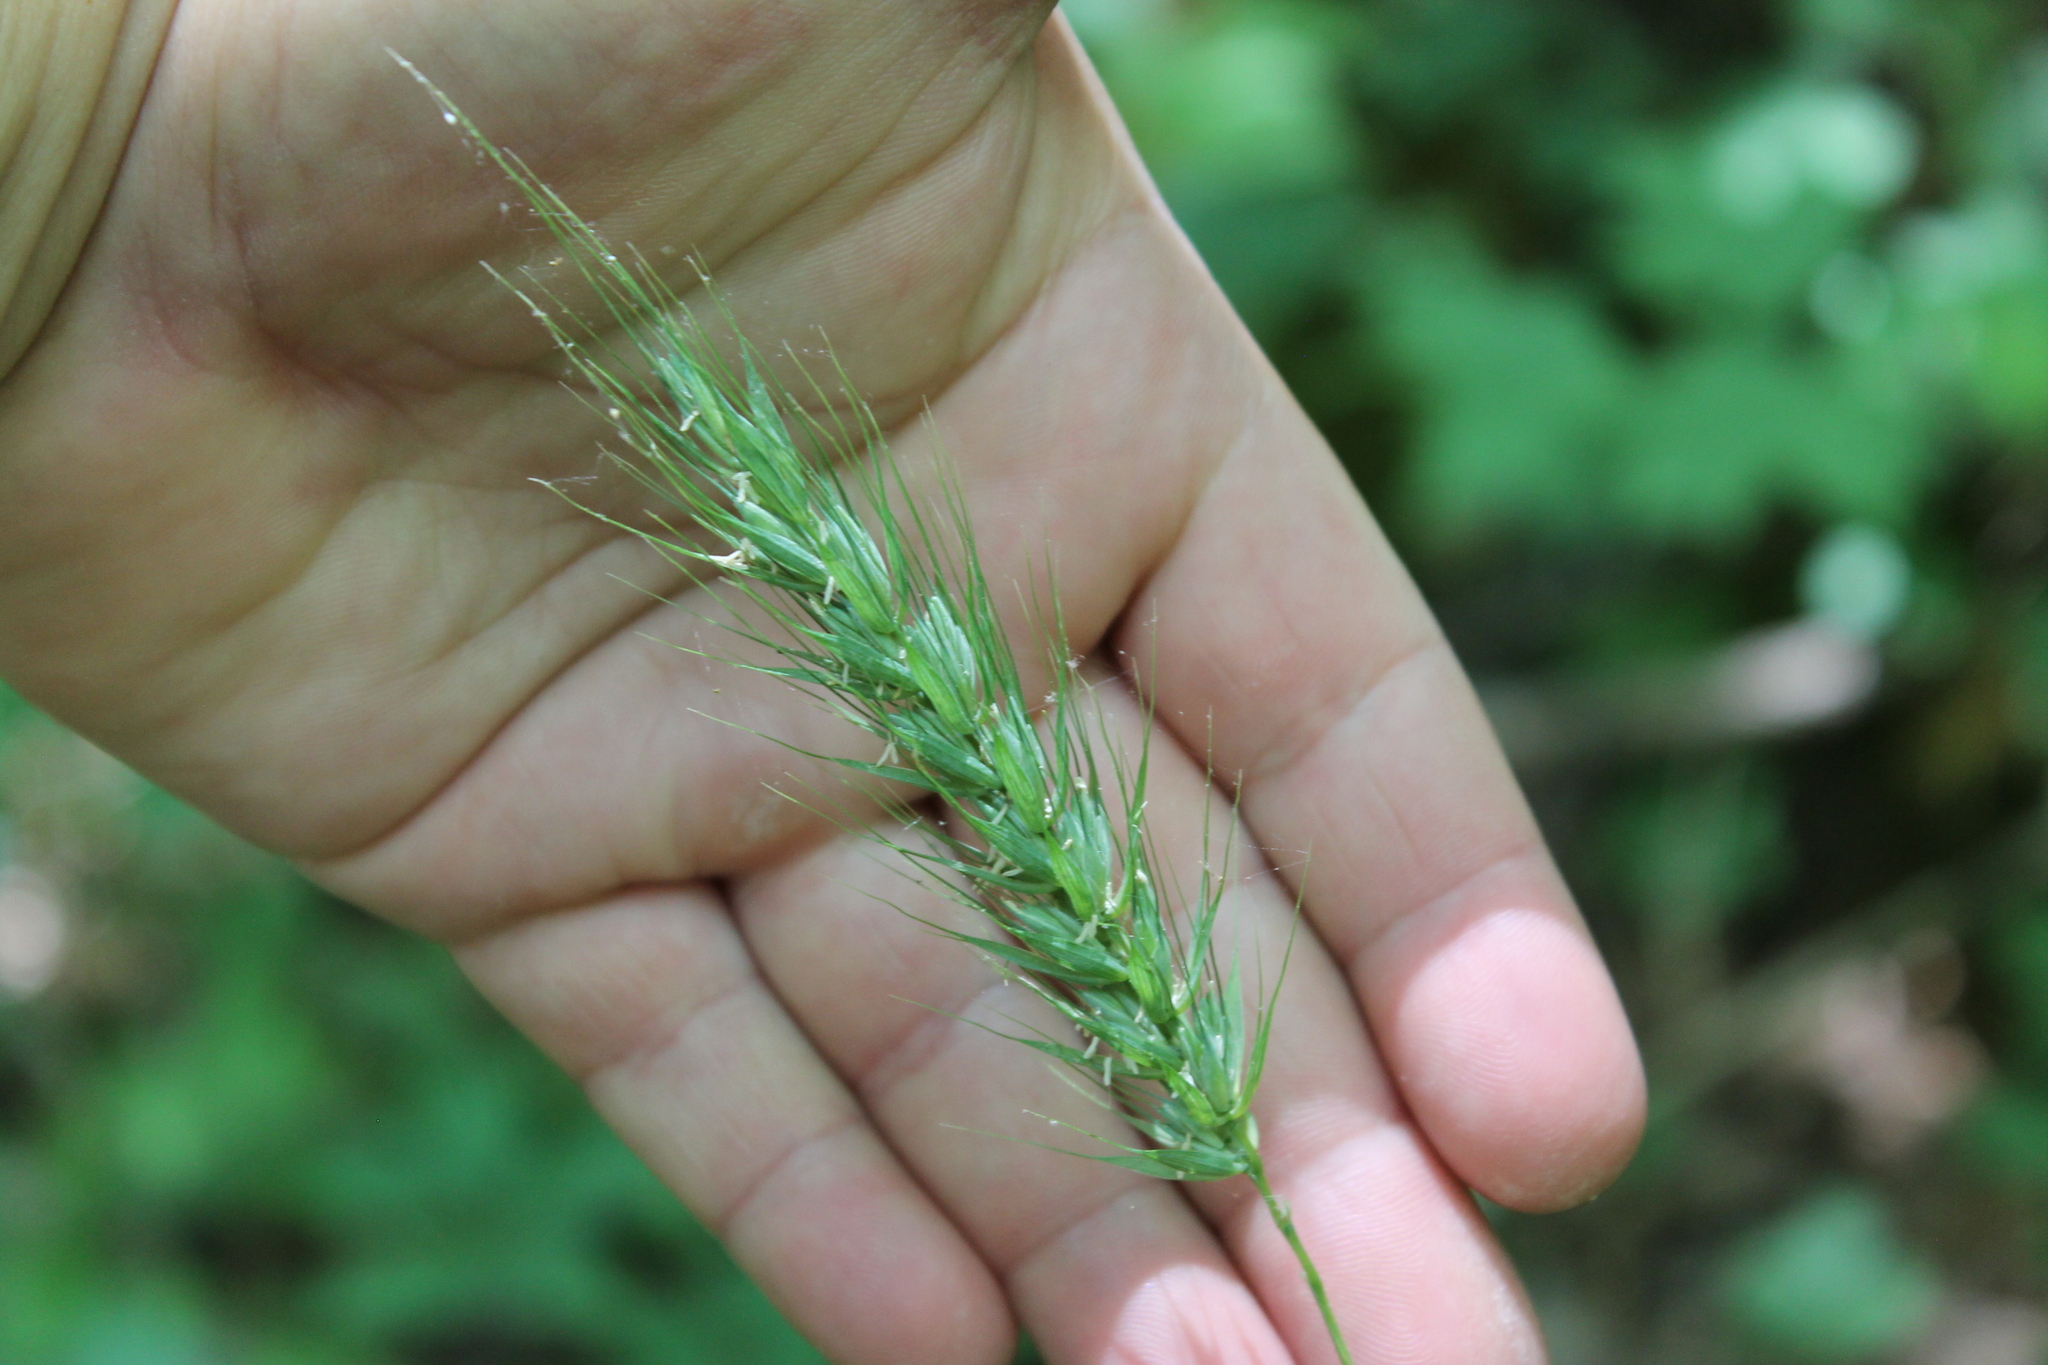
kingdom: Plantae
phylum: Tracheophyta
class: Liliopsida
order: Poales
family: Poaceae
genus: Elymus
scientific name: Elymus virginicus
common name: Common eastern wildrye
